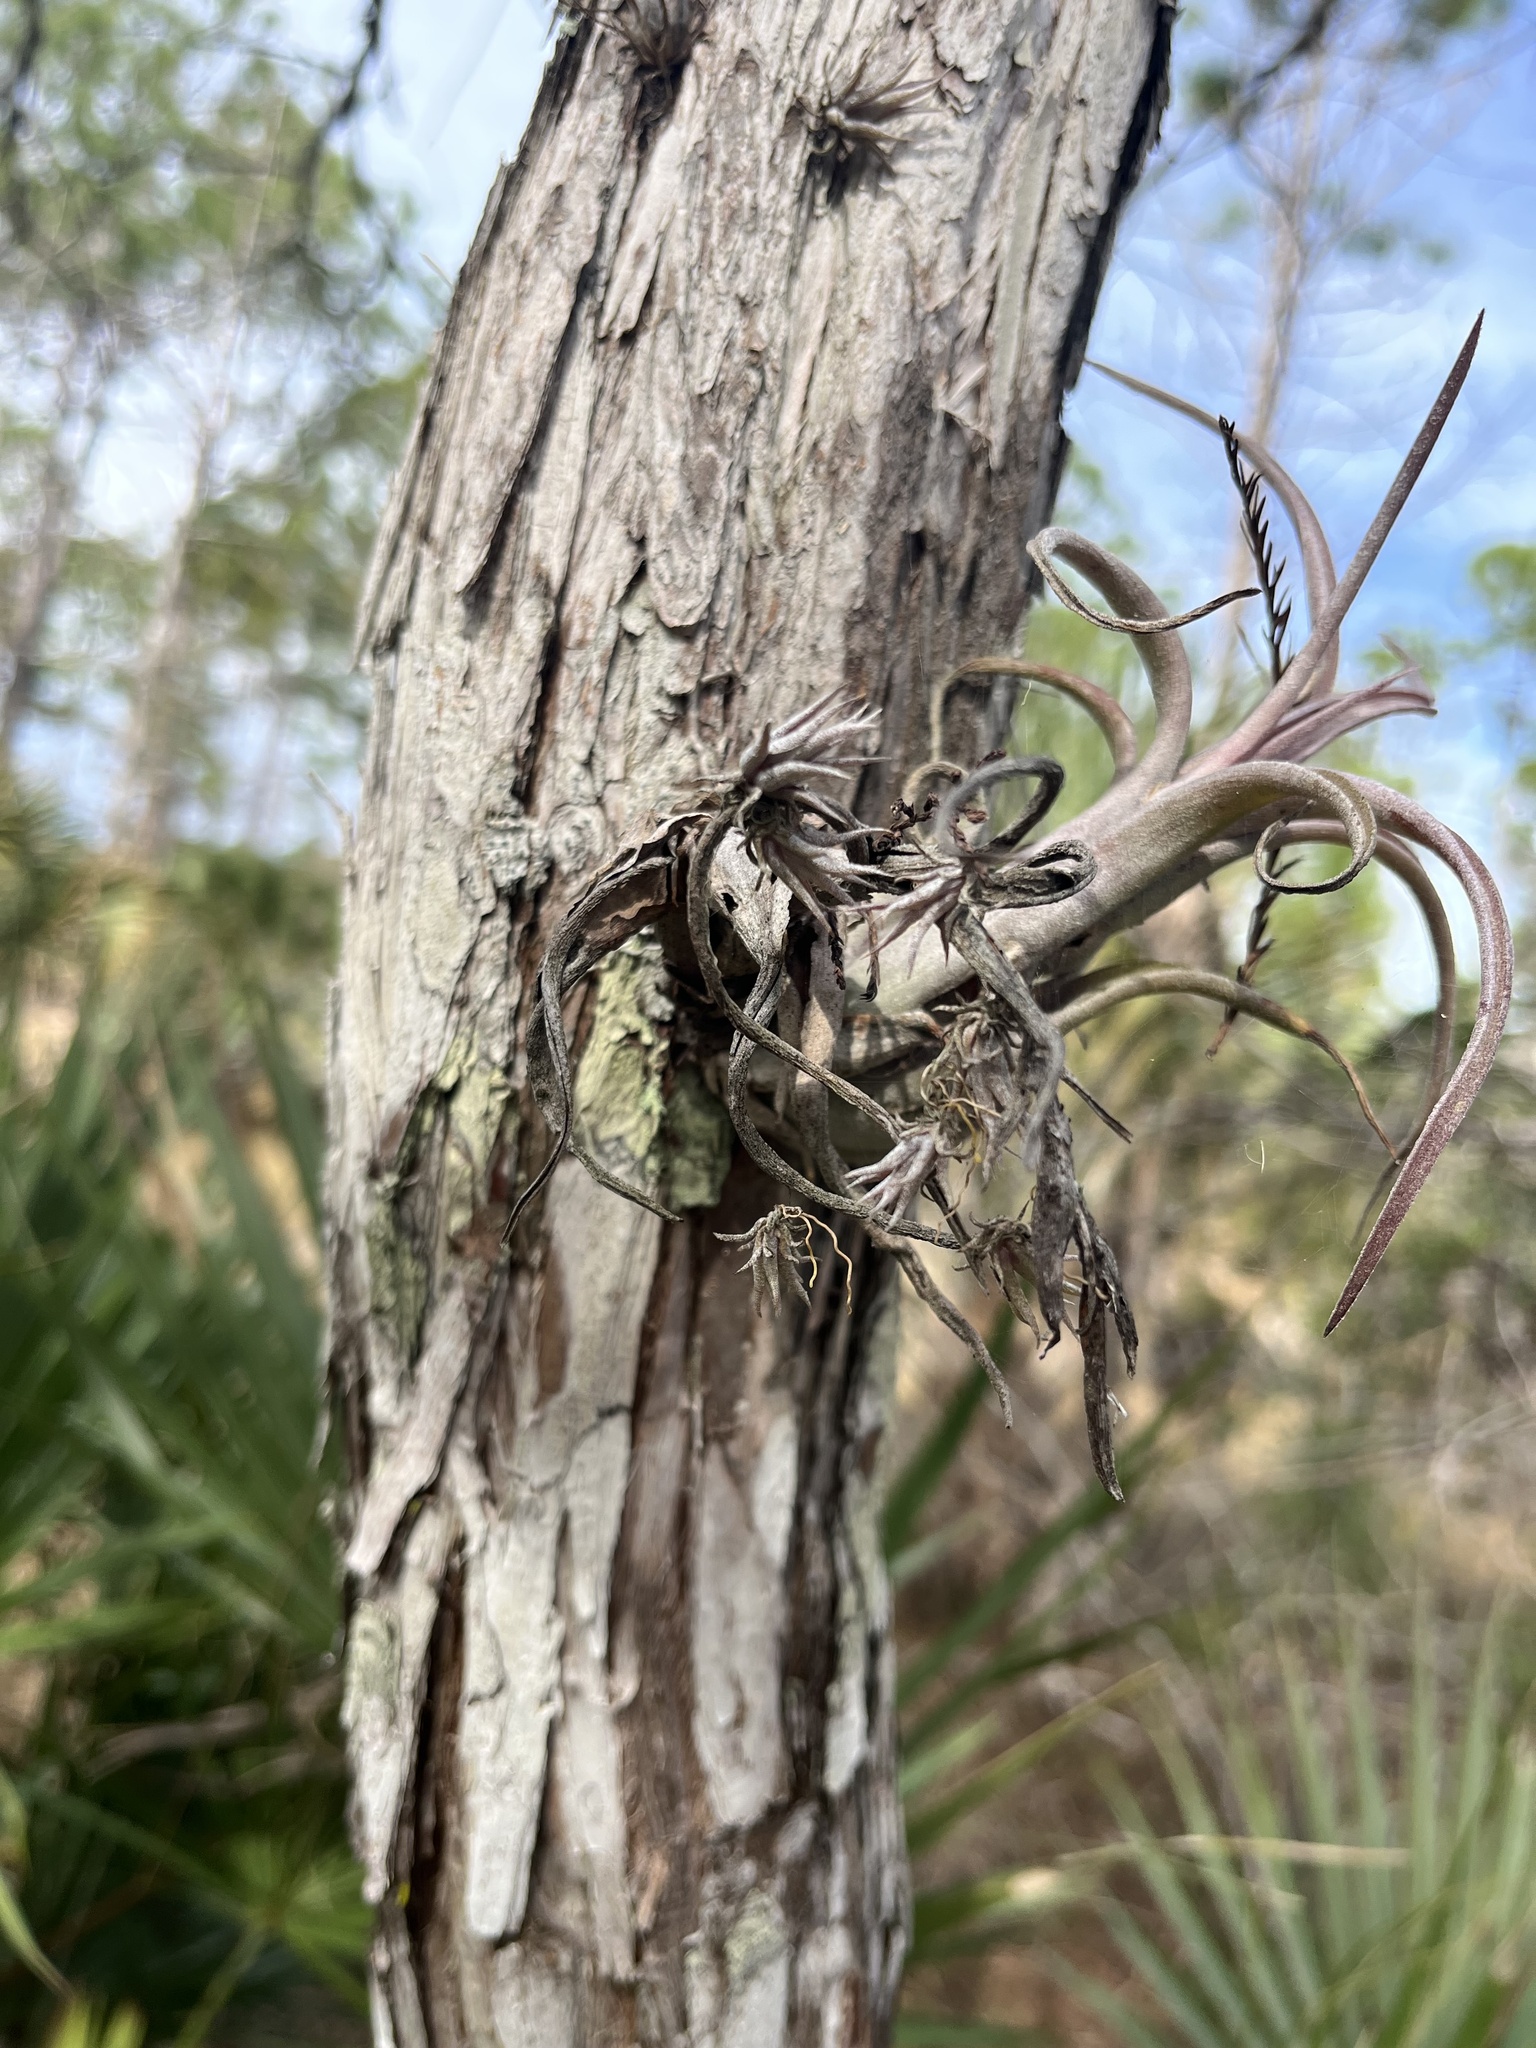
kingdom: Plantae
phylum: Tracheophyta
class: Liliopsida
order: Poales
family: Bromeliaceae
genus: Tillandsia
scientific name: Tillandsia paucifolia
